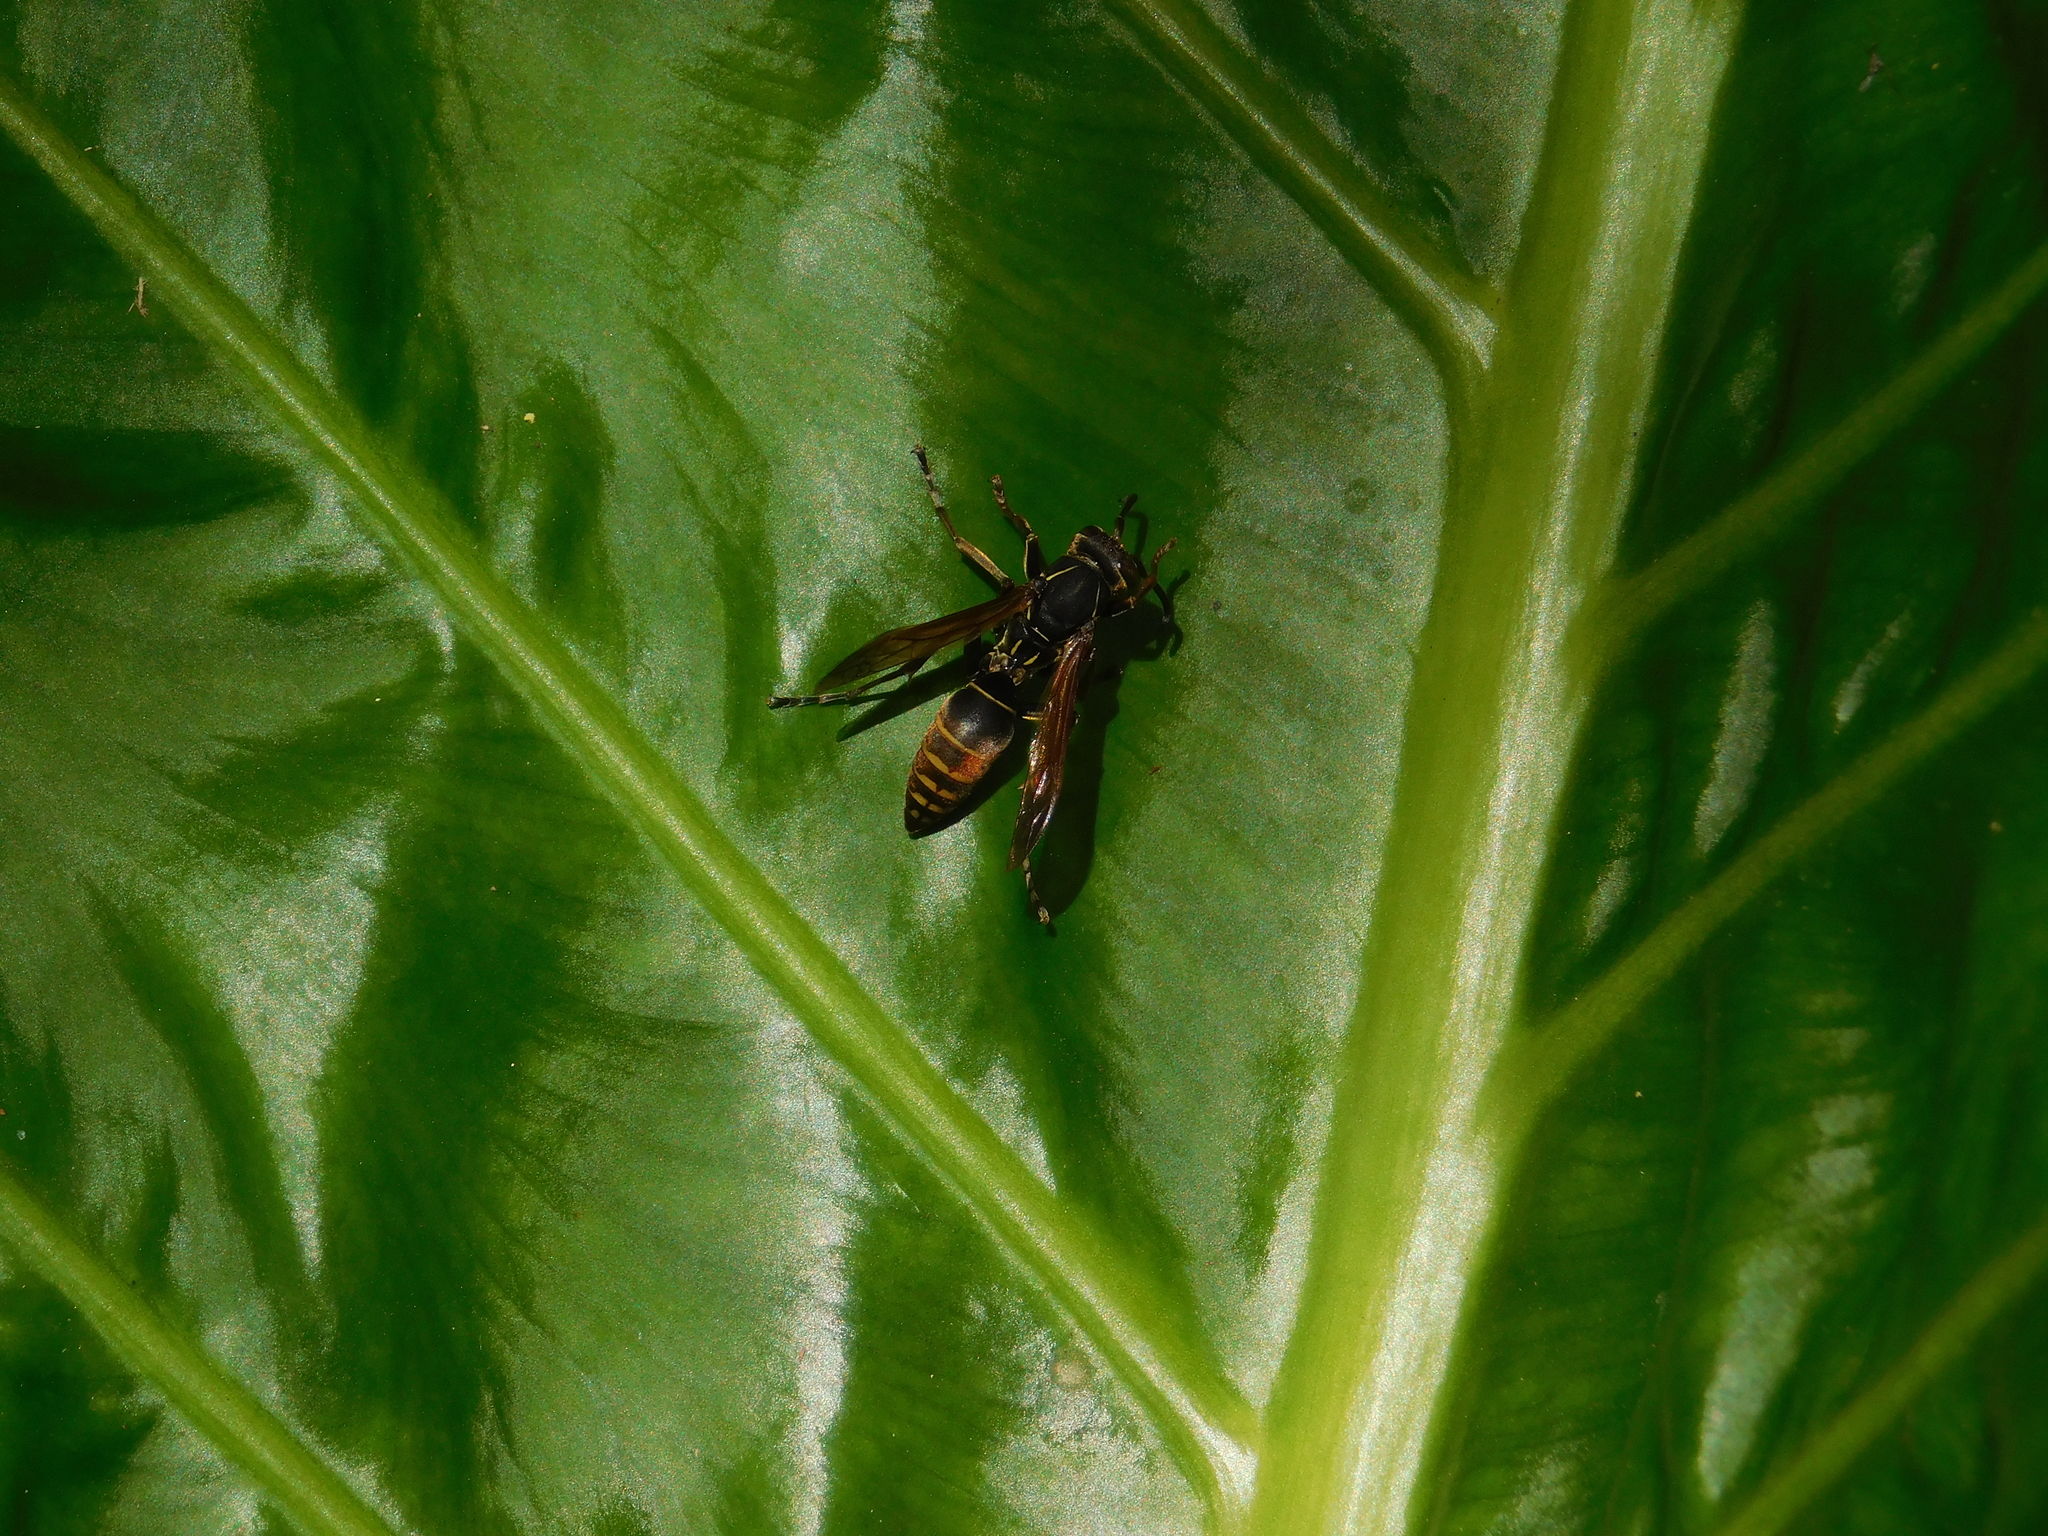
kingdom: Animalia
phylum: Arthropoda
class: Insecta
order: Hymenoptera
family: Eumenidae
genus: Polistes
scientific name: Polistes cinerascens
